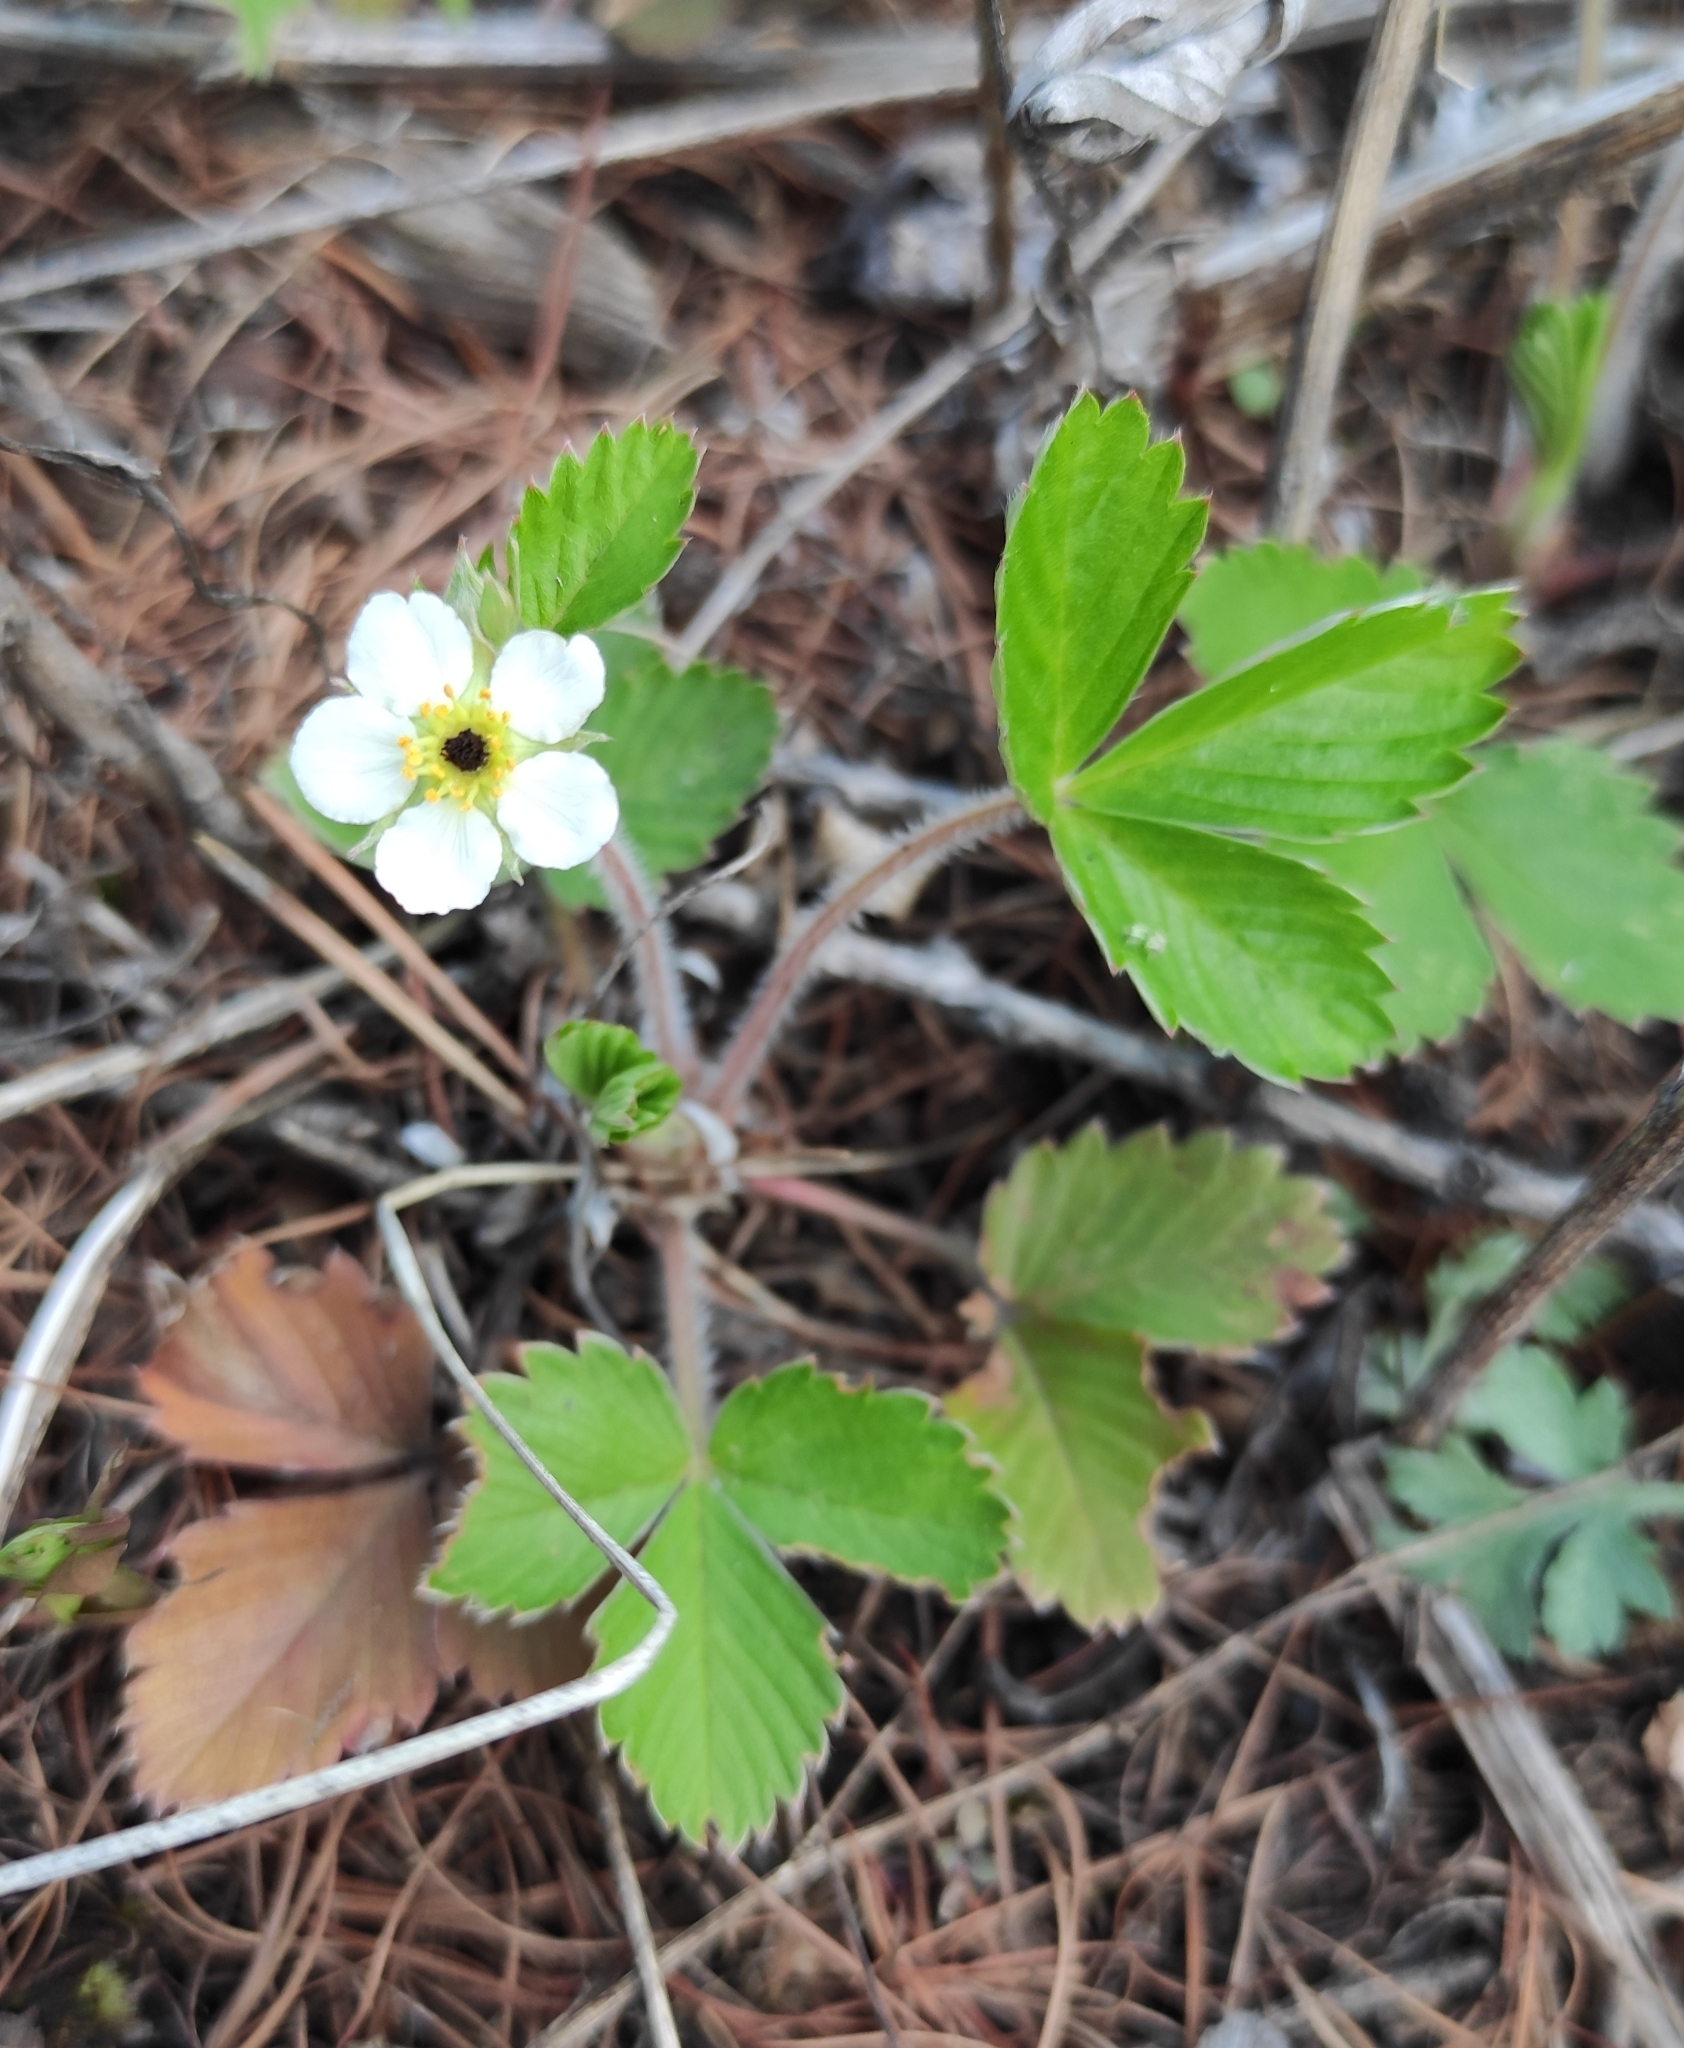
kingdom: Plantae
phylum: Tracheophyta
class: Magnoliopsida
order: Rosales
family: Rosaceae
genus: Fragaria
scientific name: Fragaria vesca
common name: Wild strawberry
